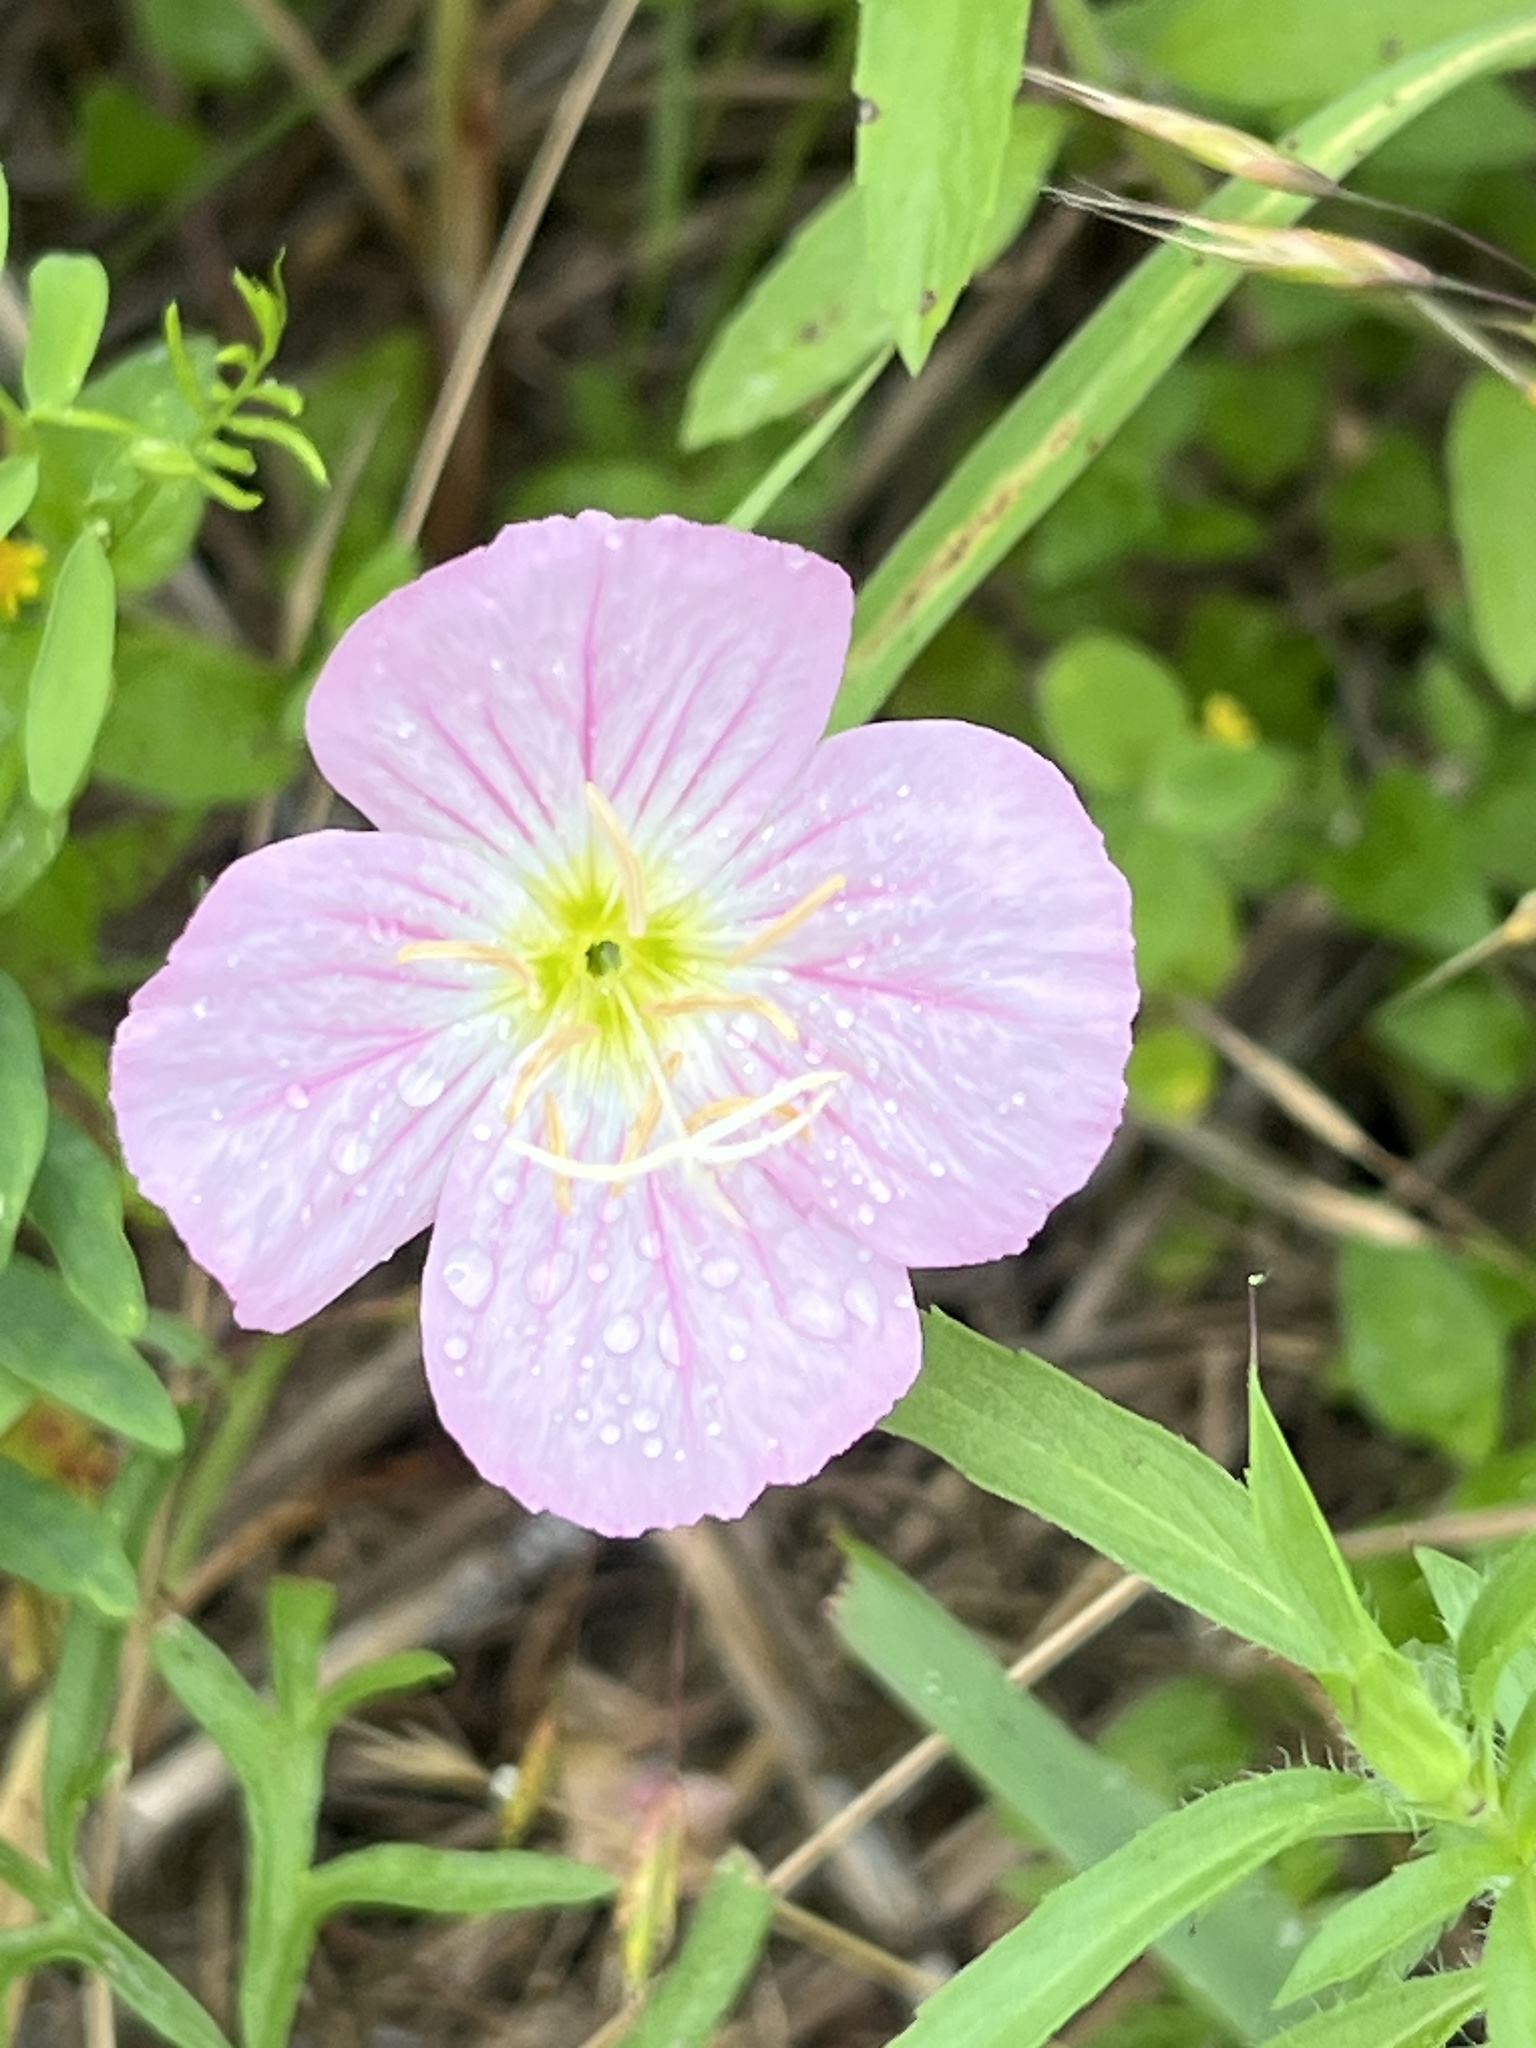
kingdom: Plantae
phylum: Tracheophyta
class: Magnoliopsida
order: Myrtales
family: Onagraceae
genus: Oenothera
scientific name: Oenothera speciosa
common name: White evening-primrose
